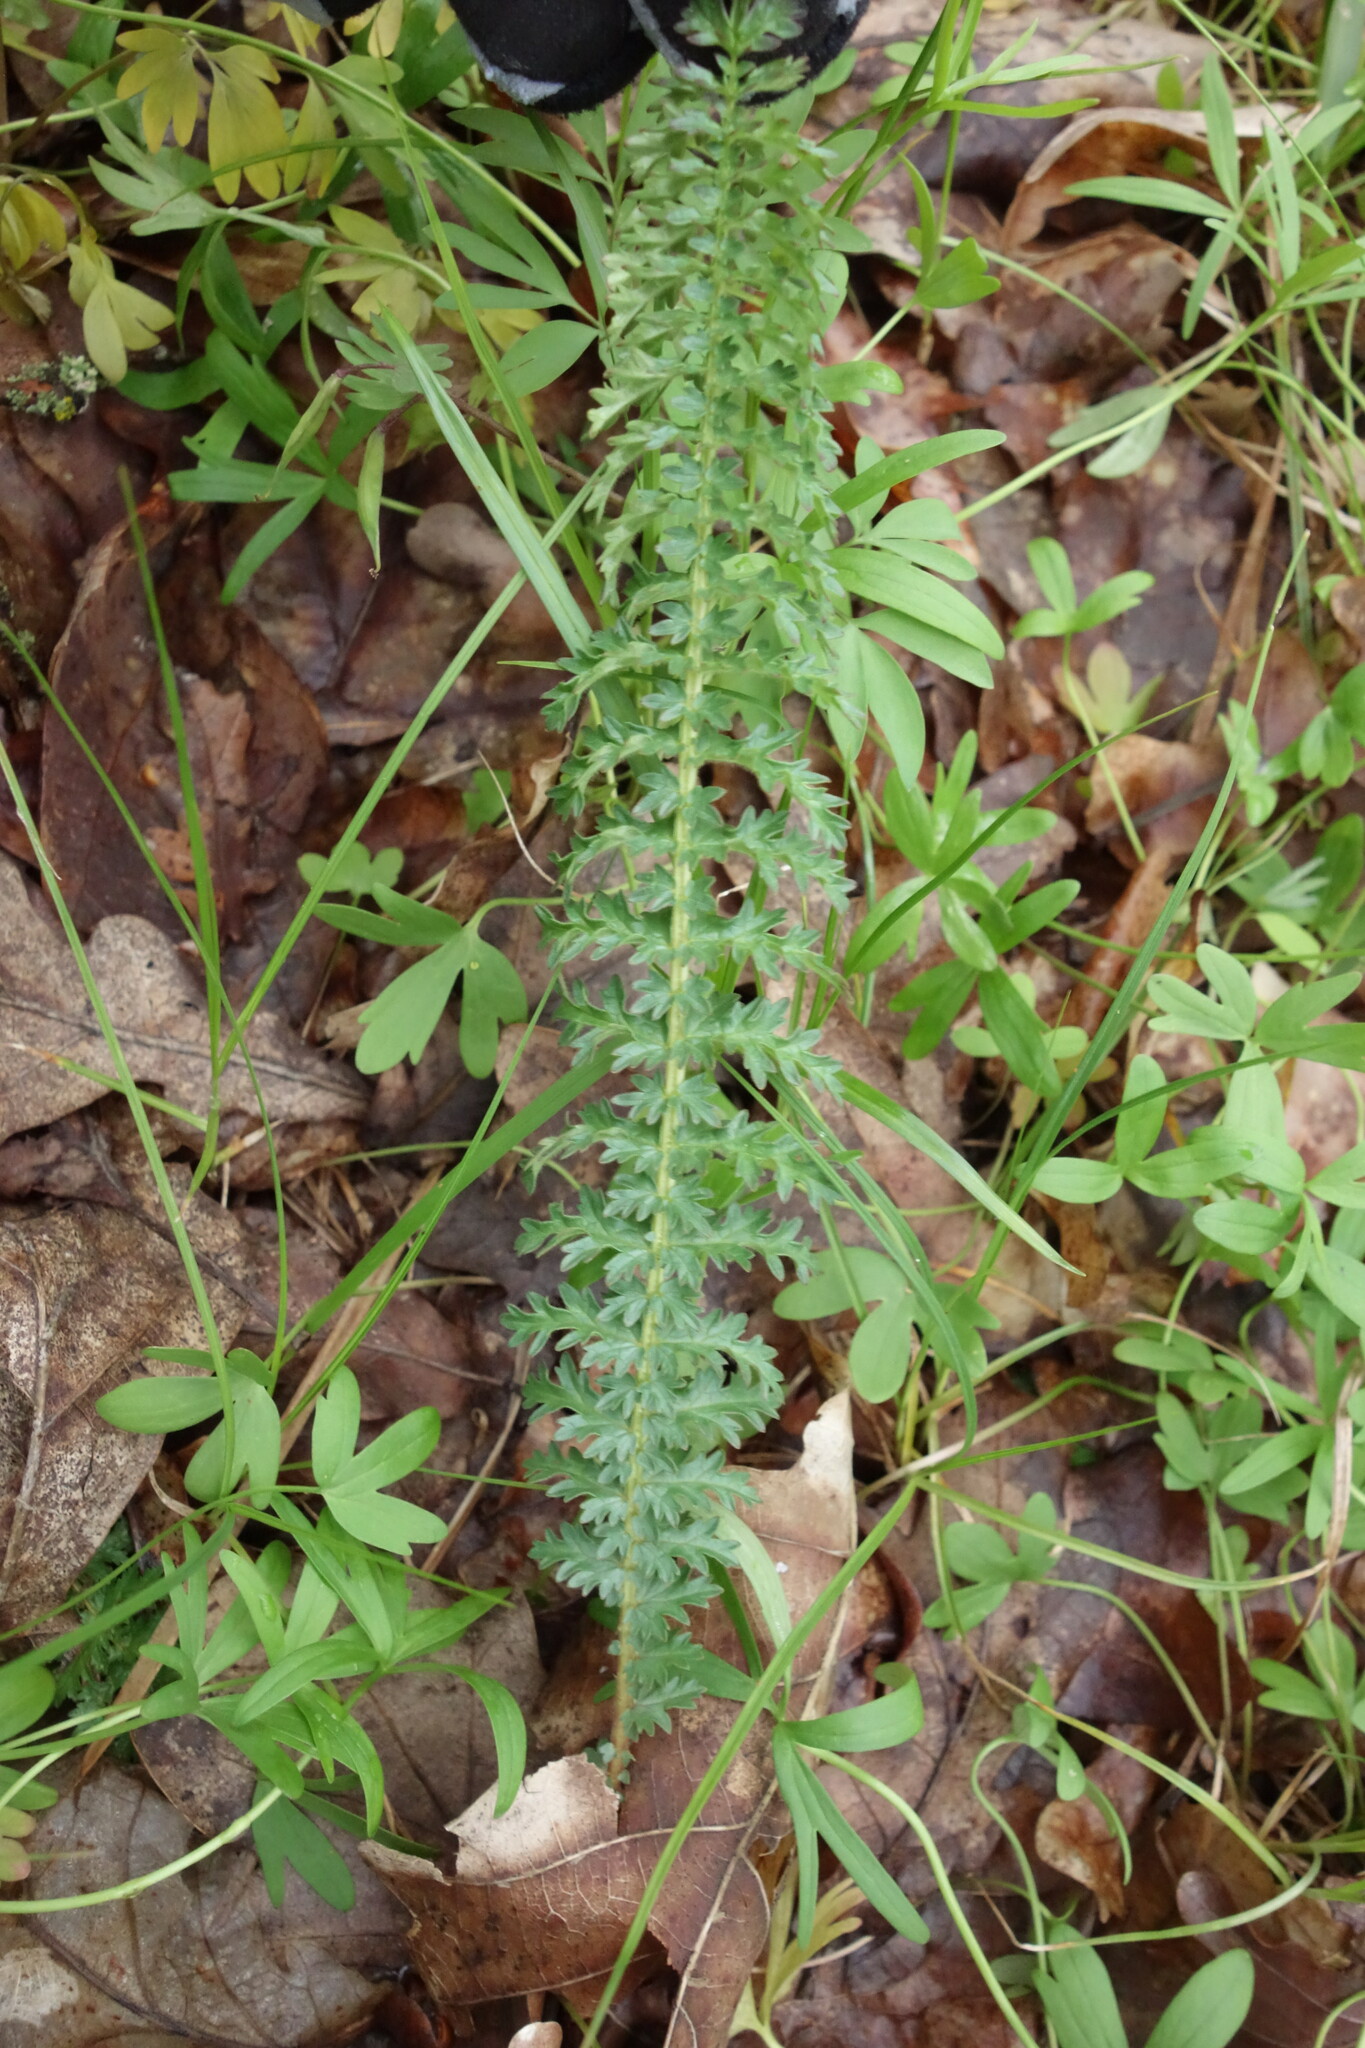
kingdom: Plantae
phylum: Tracheophyta
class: Magnoliopsida
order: Rosales
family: Rosaceae
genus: Filipendula
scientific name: Filipendula vulgaris
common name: Dropwort
